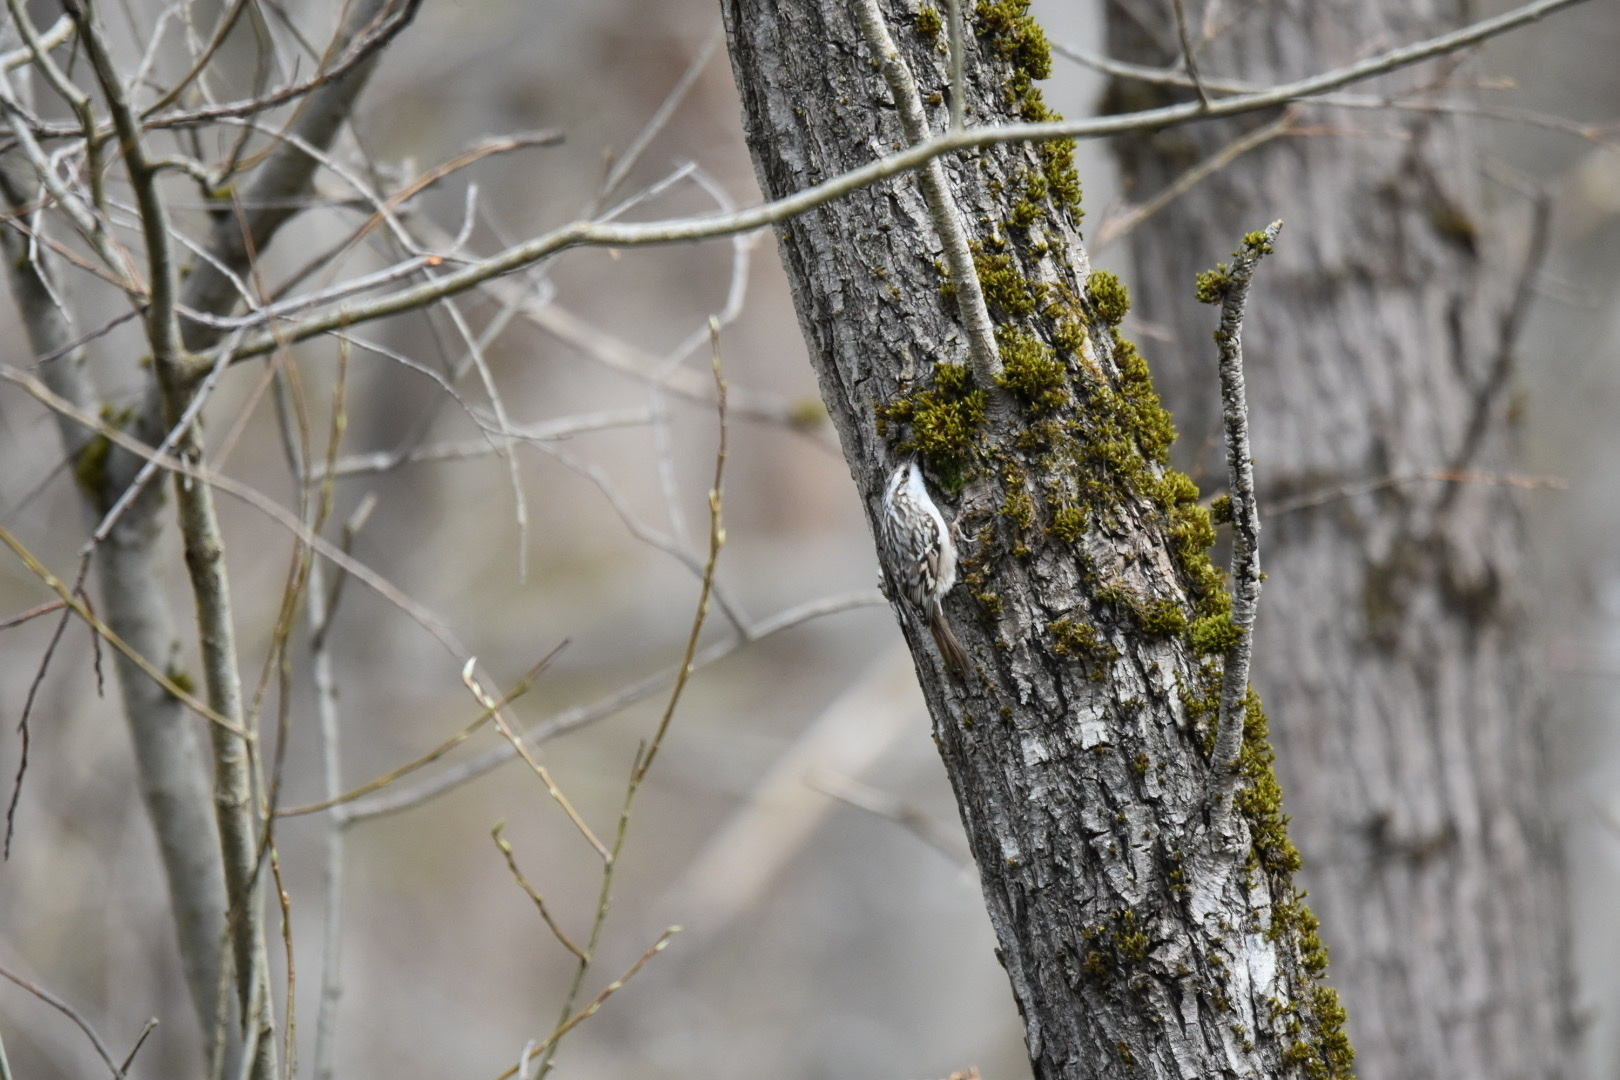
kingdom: Animalia
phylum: Chordata
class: Aves
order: Passeriformes
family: Certhiidae
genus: Certhia
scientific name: Certhia brachydactyla
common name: Short-toed treecreeper
